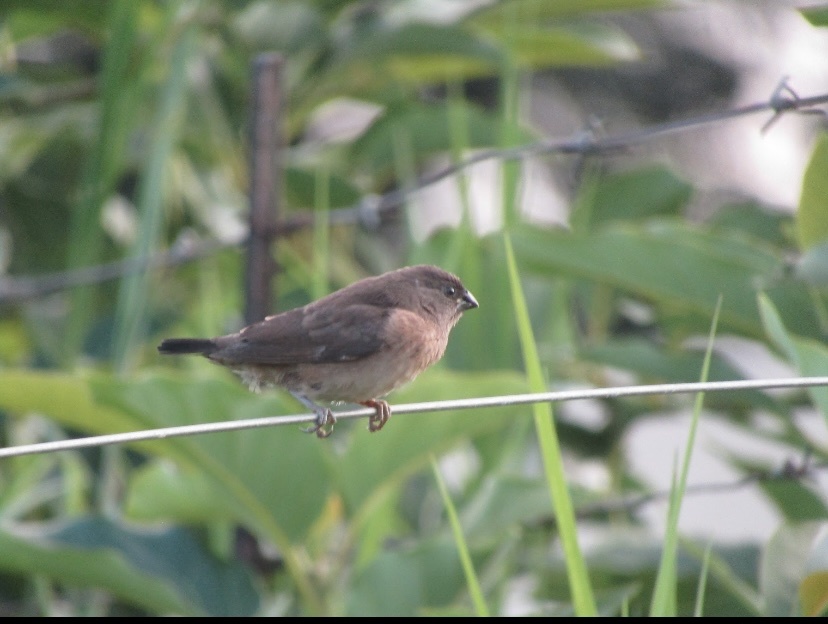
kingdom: Animalia
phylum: Chordata
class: Aves
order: Passeriformes
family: Estrildidae
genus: Lonchura
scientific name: Lonchura cucullata
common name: Bronze mannikin
